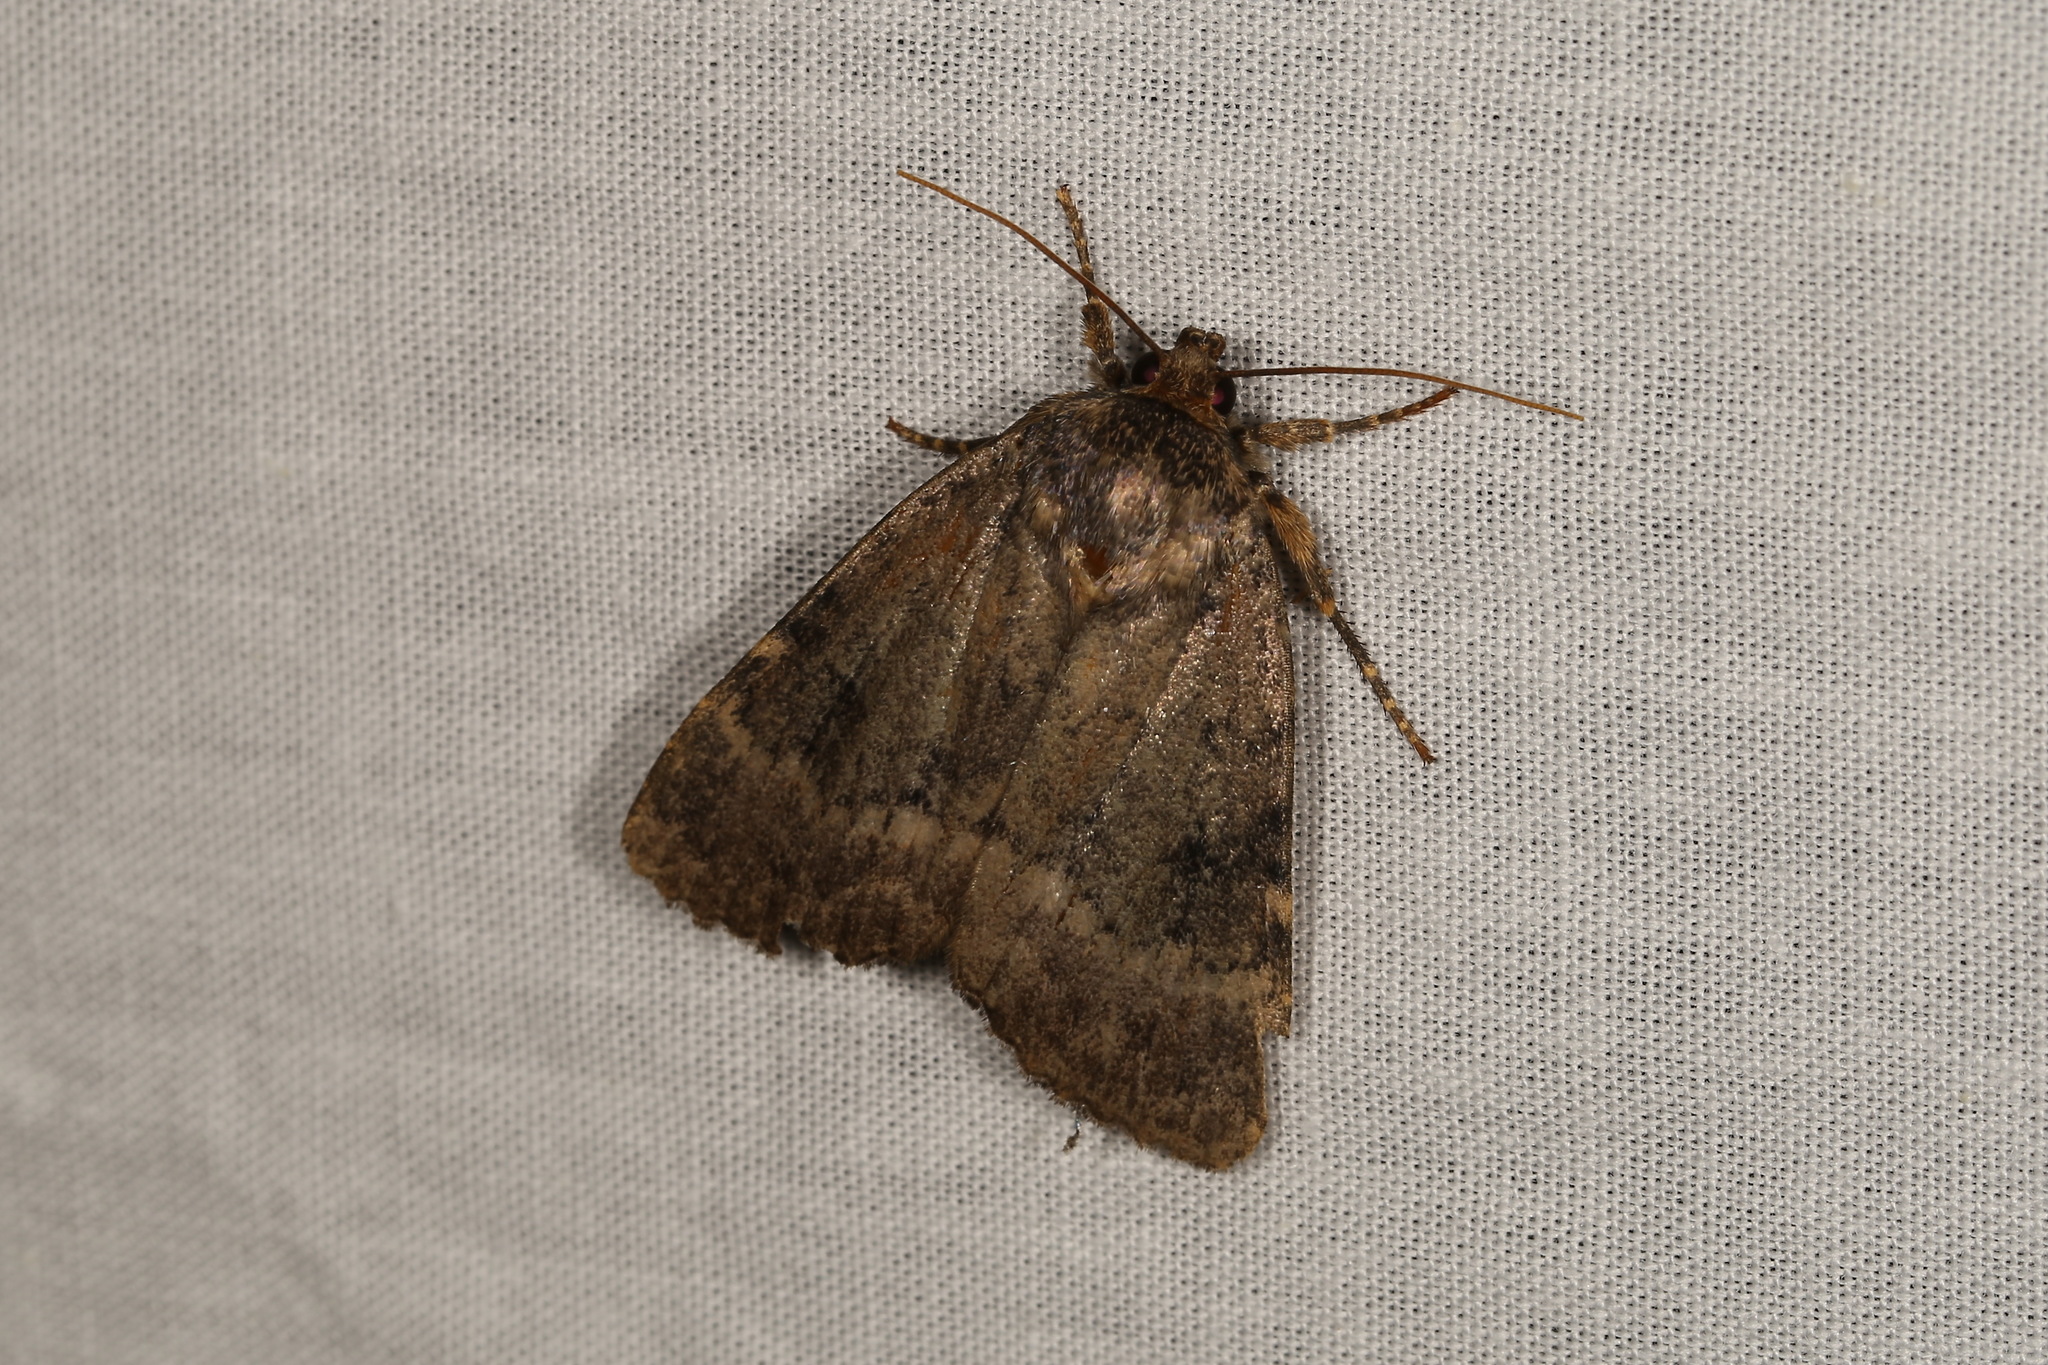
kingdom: Animalia
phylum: Arthropoda
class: Insecta
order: Lepidoptera
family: Noctuidae
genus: Amphipyra
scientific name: Amphipyra pyramidea
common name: Copper underwing
